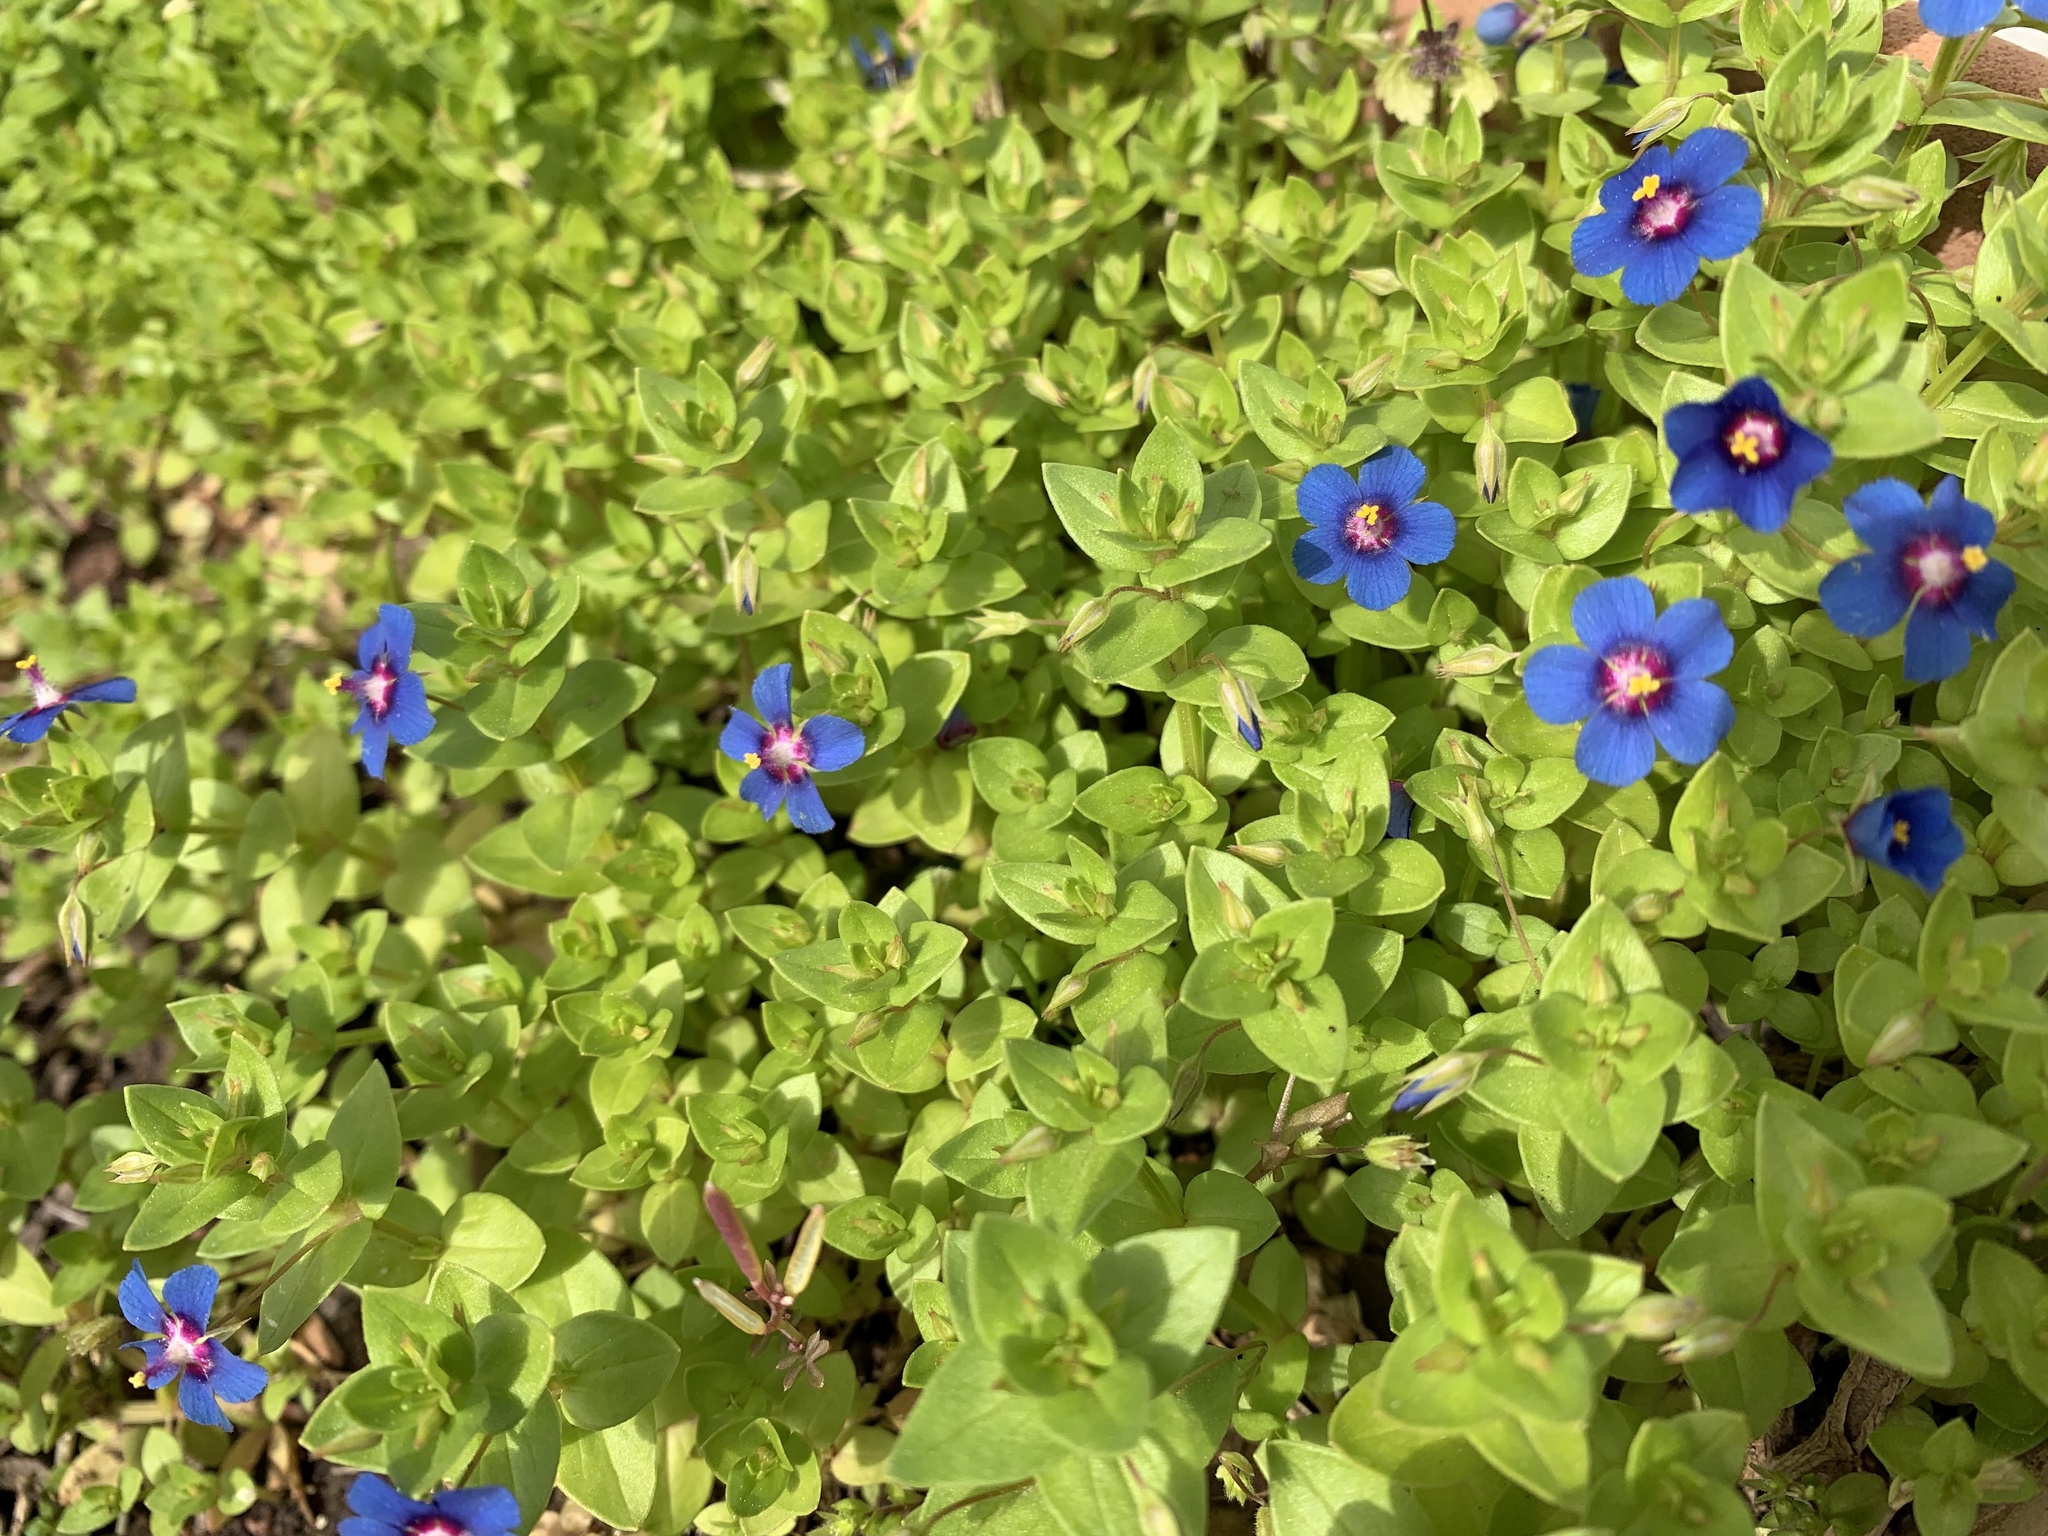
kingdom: Plantae
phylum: Tracheophyta
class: Magnoliopsida
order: Ericales
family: Primulaceae
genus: Lysimachia
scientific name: Lysimachia loeflingii
